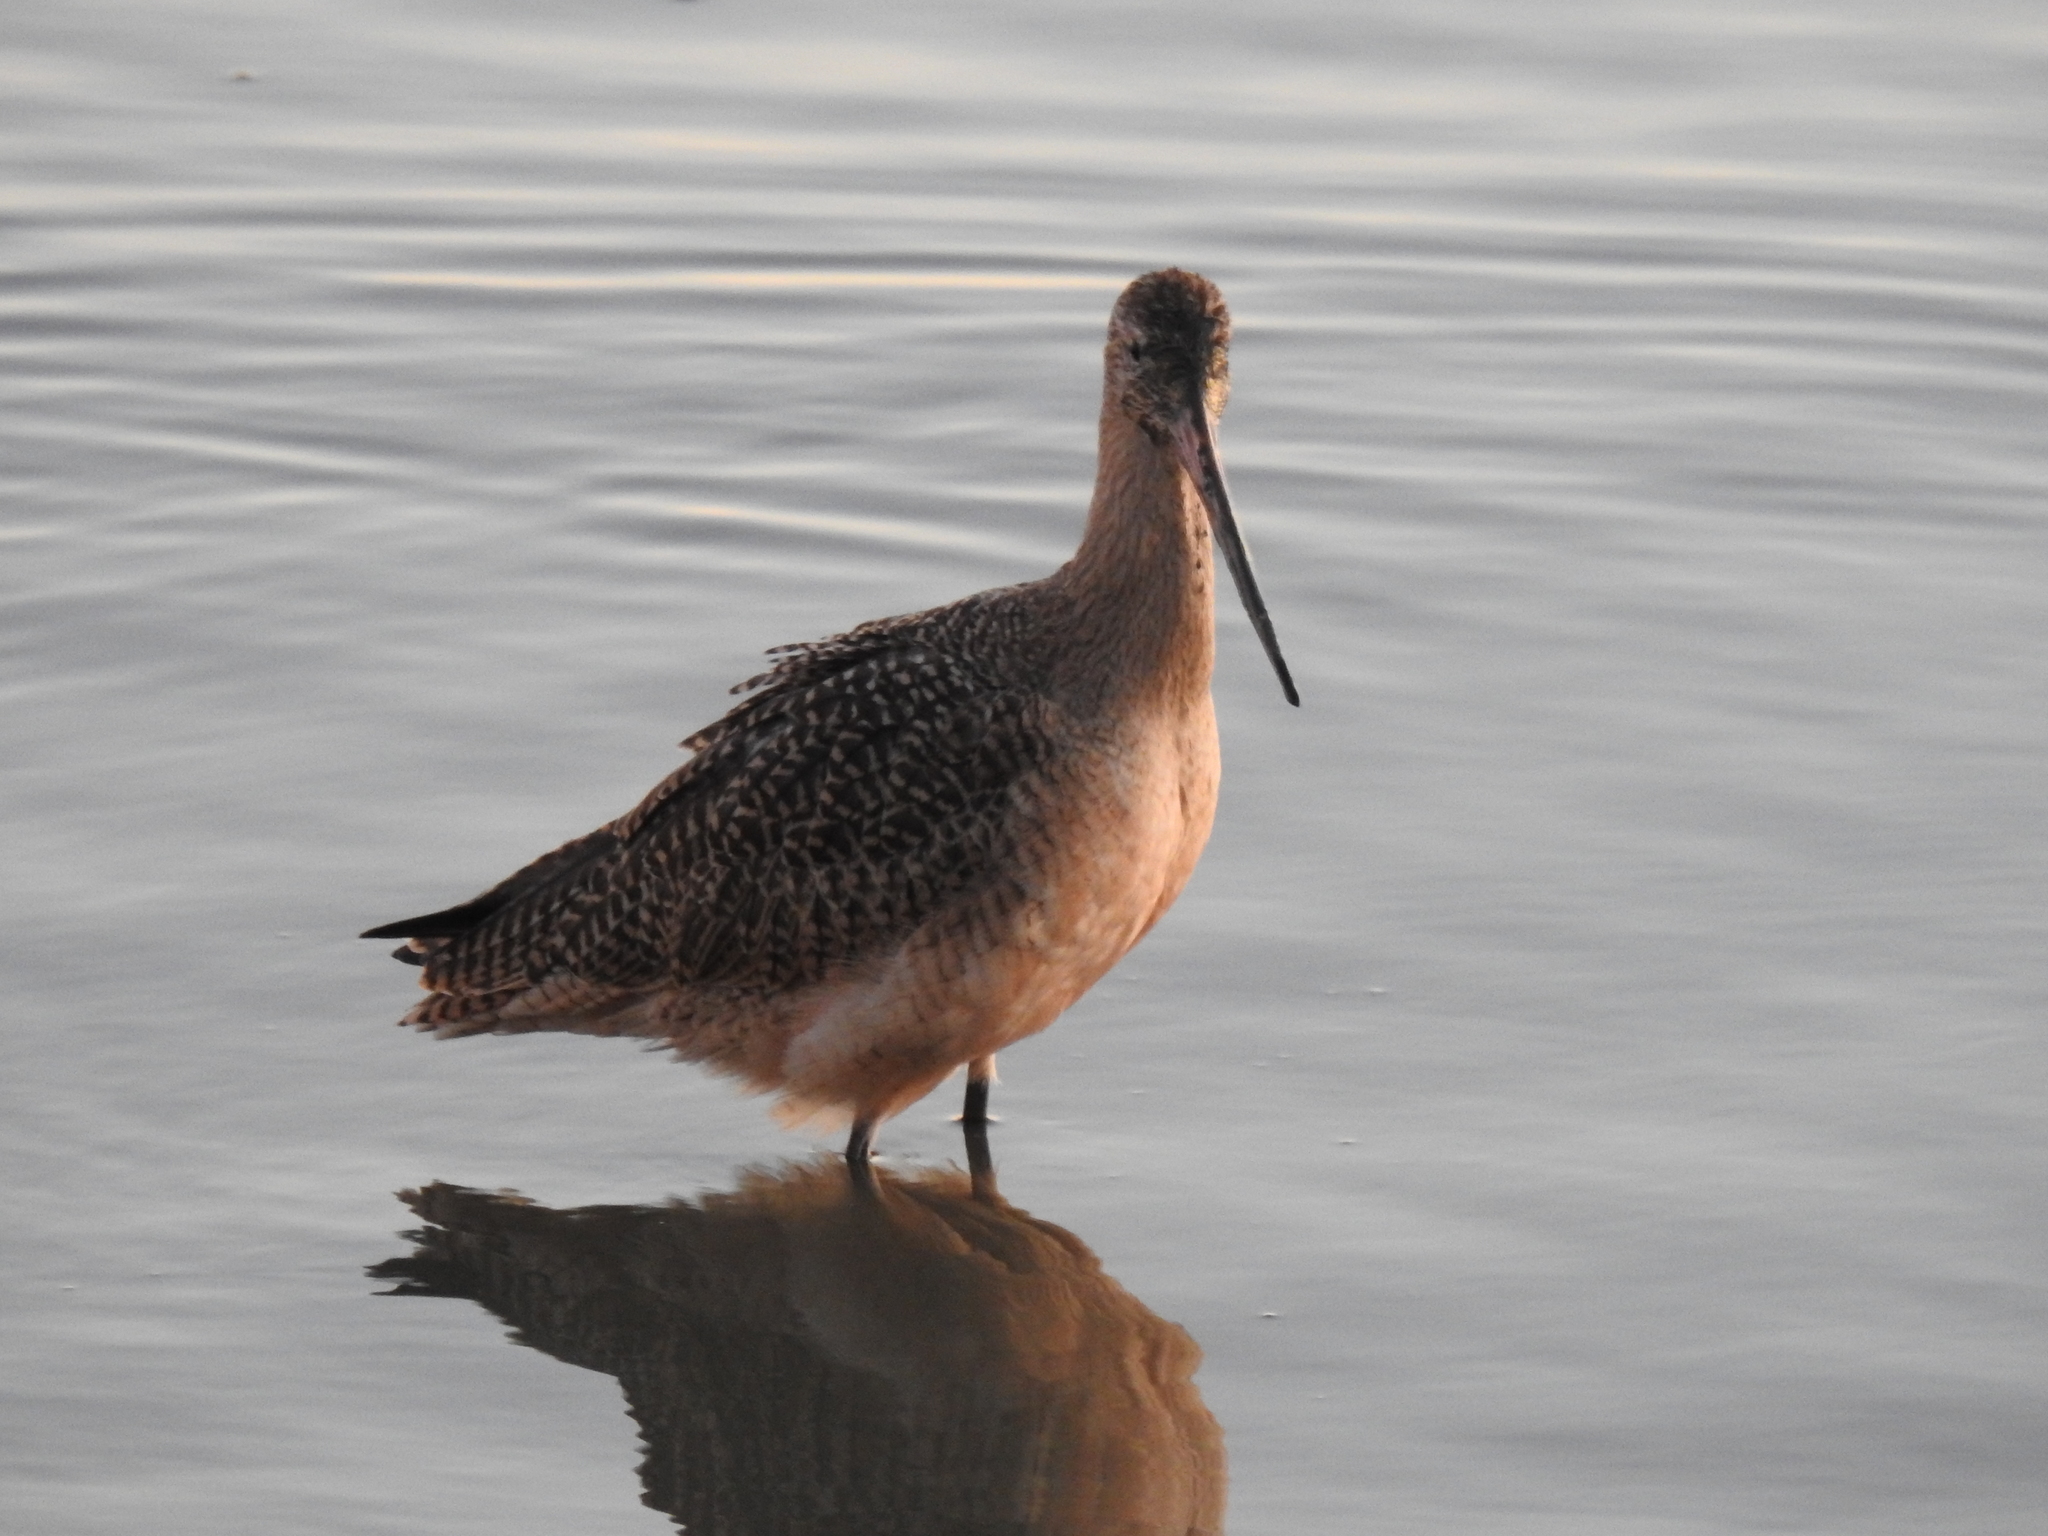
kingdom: Animalia
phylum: Chordata
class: Aves
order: Charadriiformes
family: Scolopacidae
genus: Limosa
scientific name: Limosa fedoa
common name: Marbled godwit
